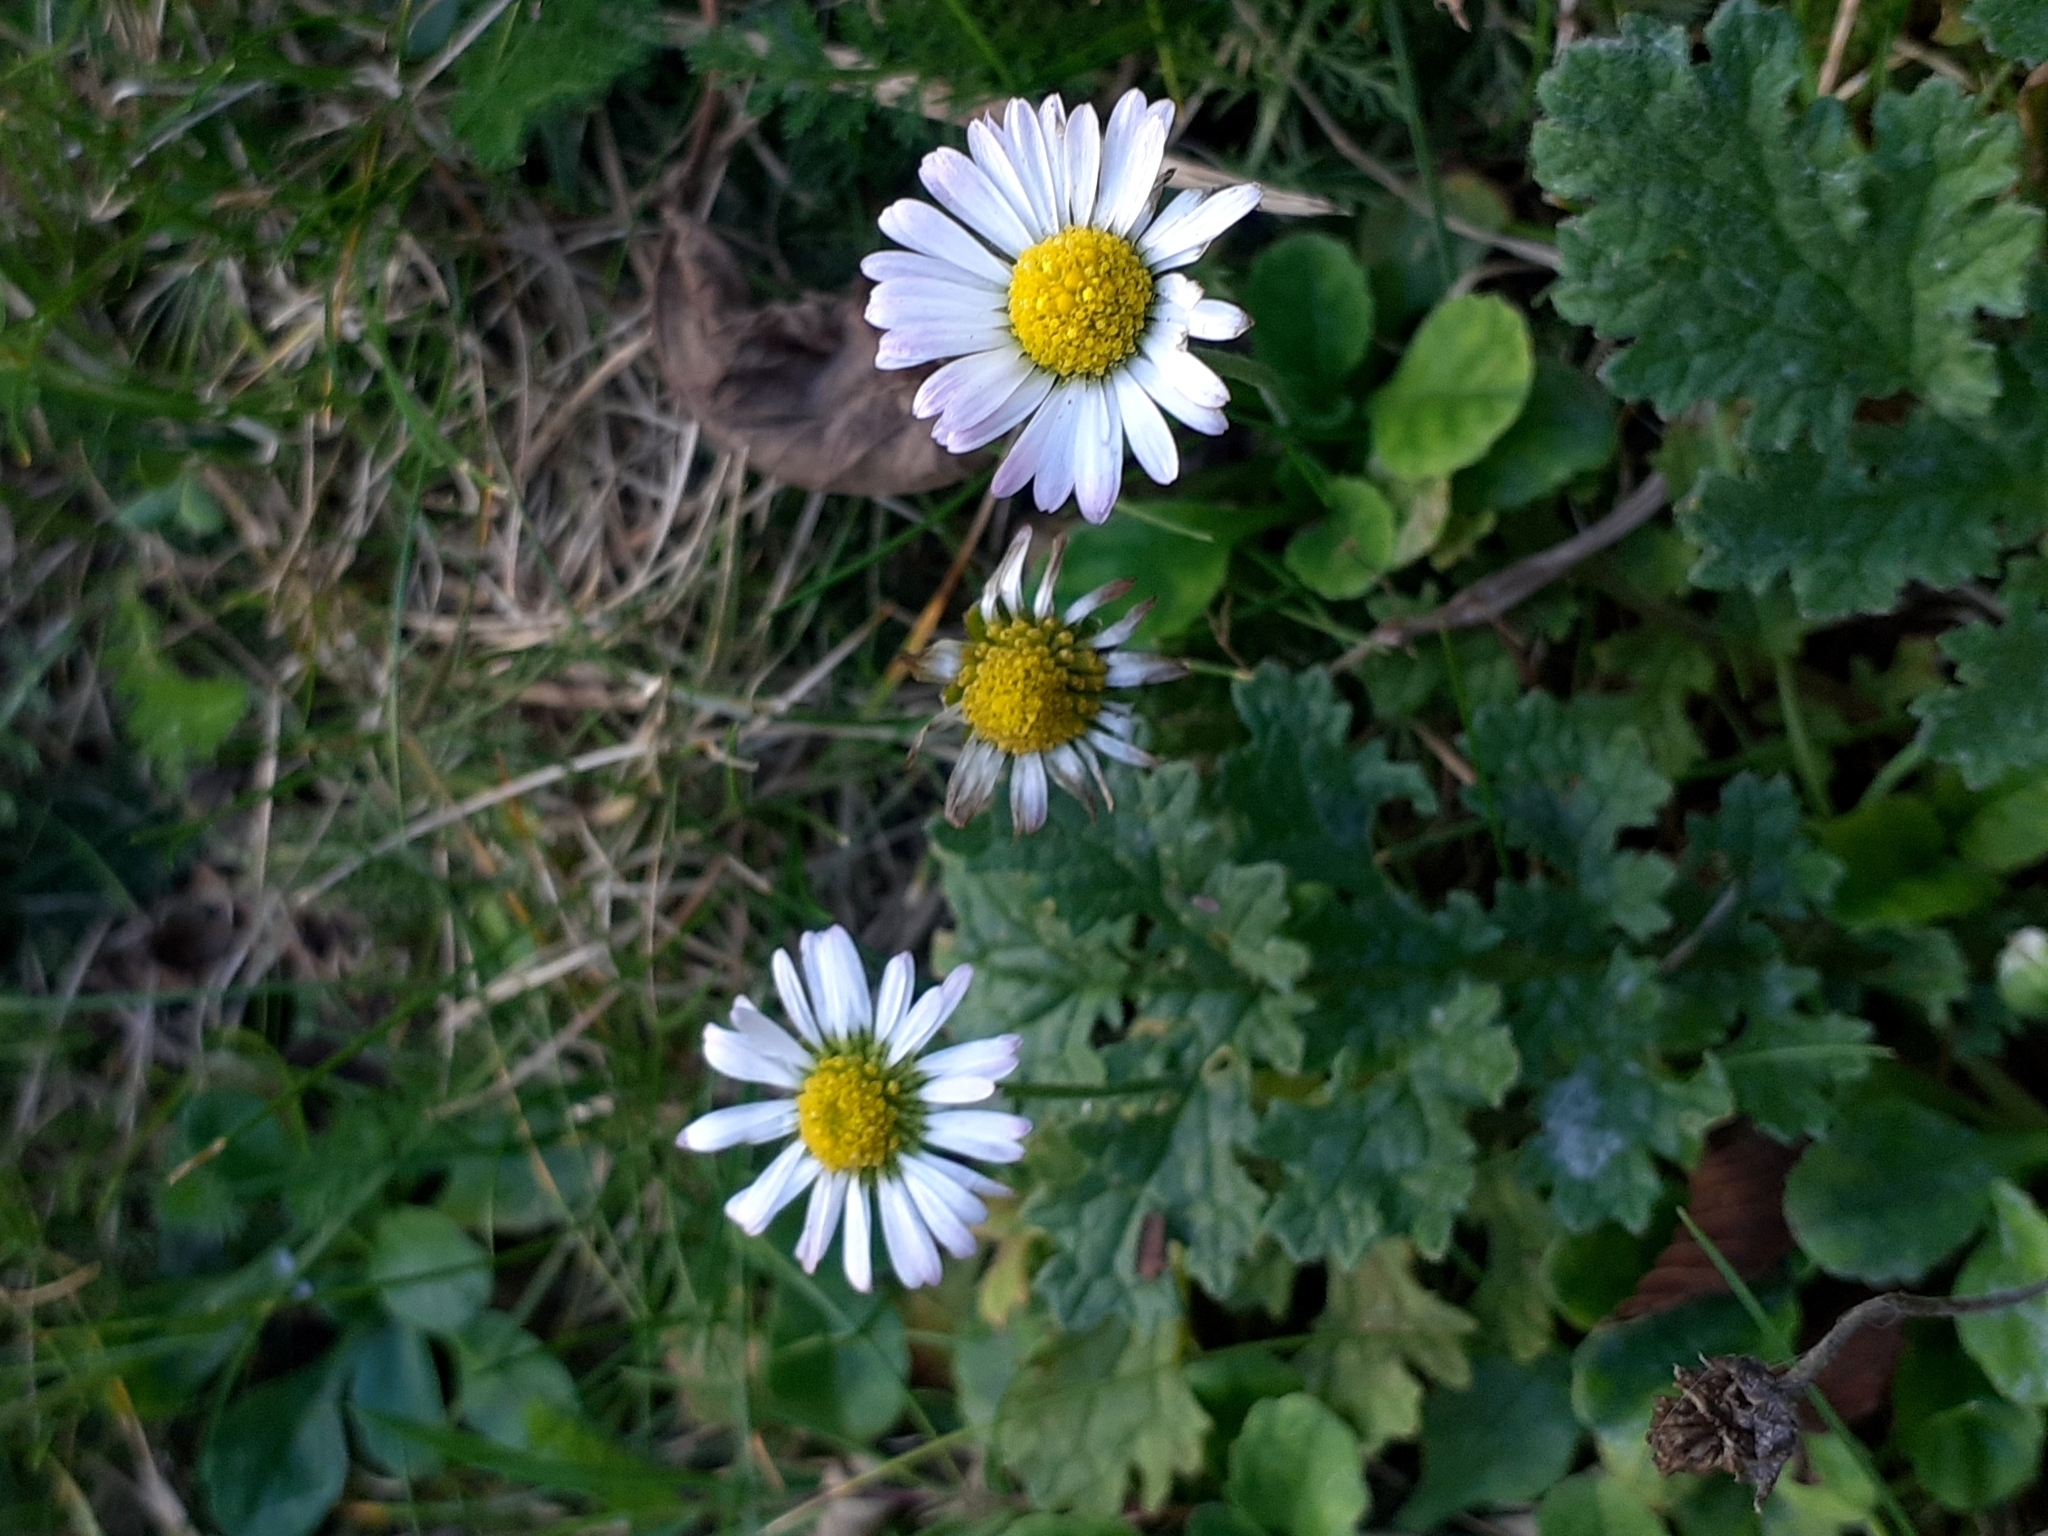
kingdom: Plantae
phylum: Tracheophyta
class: Magnoliopsida
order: Asterales
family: Asteraceae
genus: Bellis
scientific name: Bellis perennis
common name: Lawndaisy
